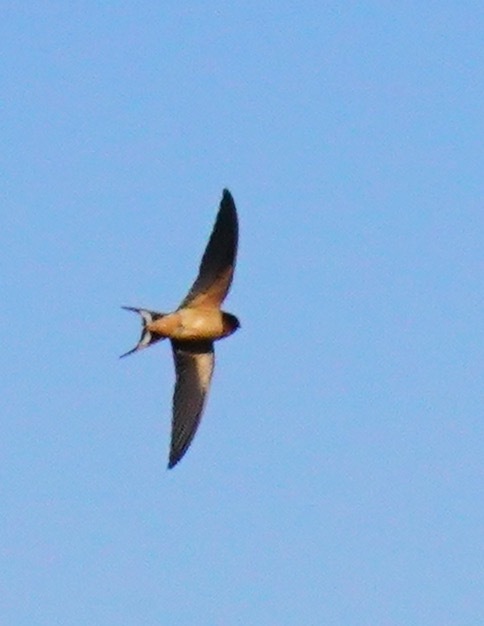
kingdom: Animalia
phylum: Chordata
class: Aves
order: Passeriformes
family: Hirundinidae
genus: Hirundo
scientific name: Hirundo rustica
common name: Barn swallow
